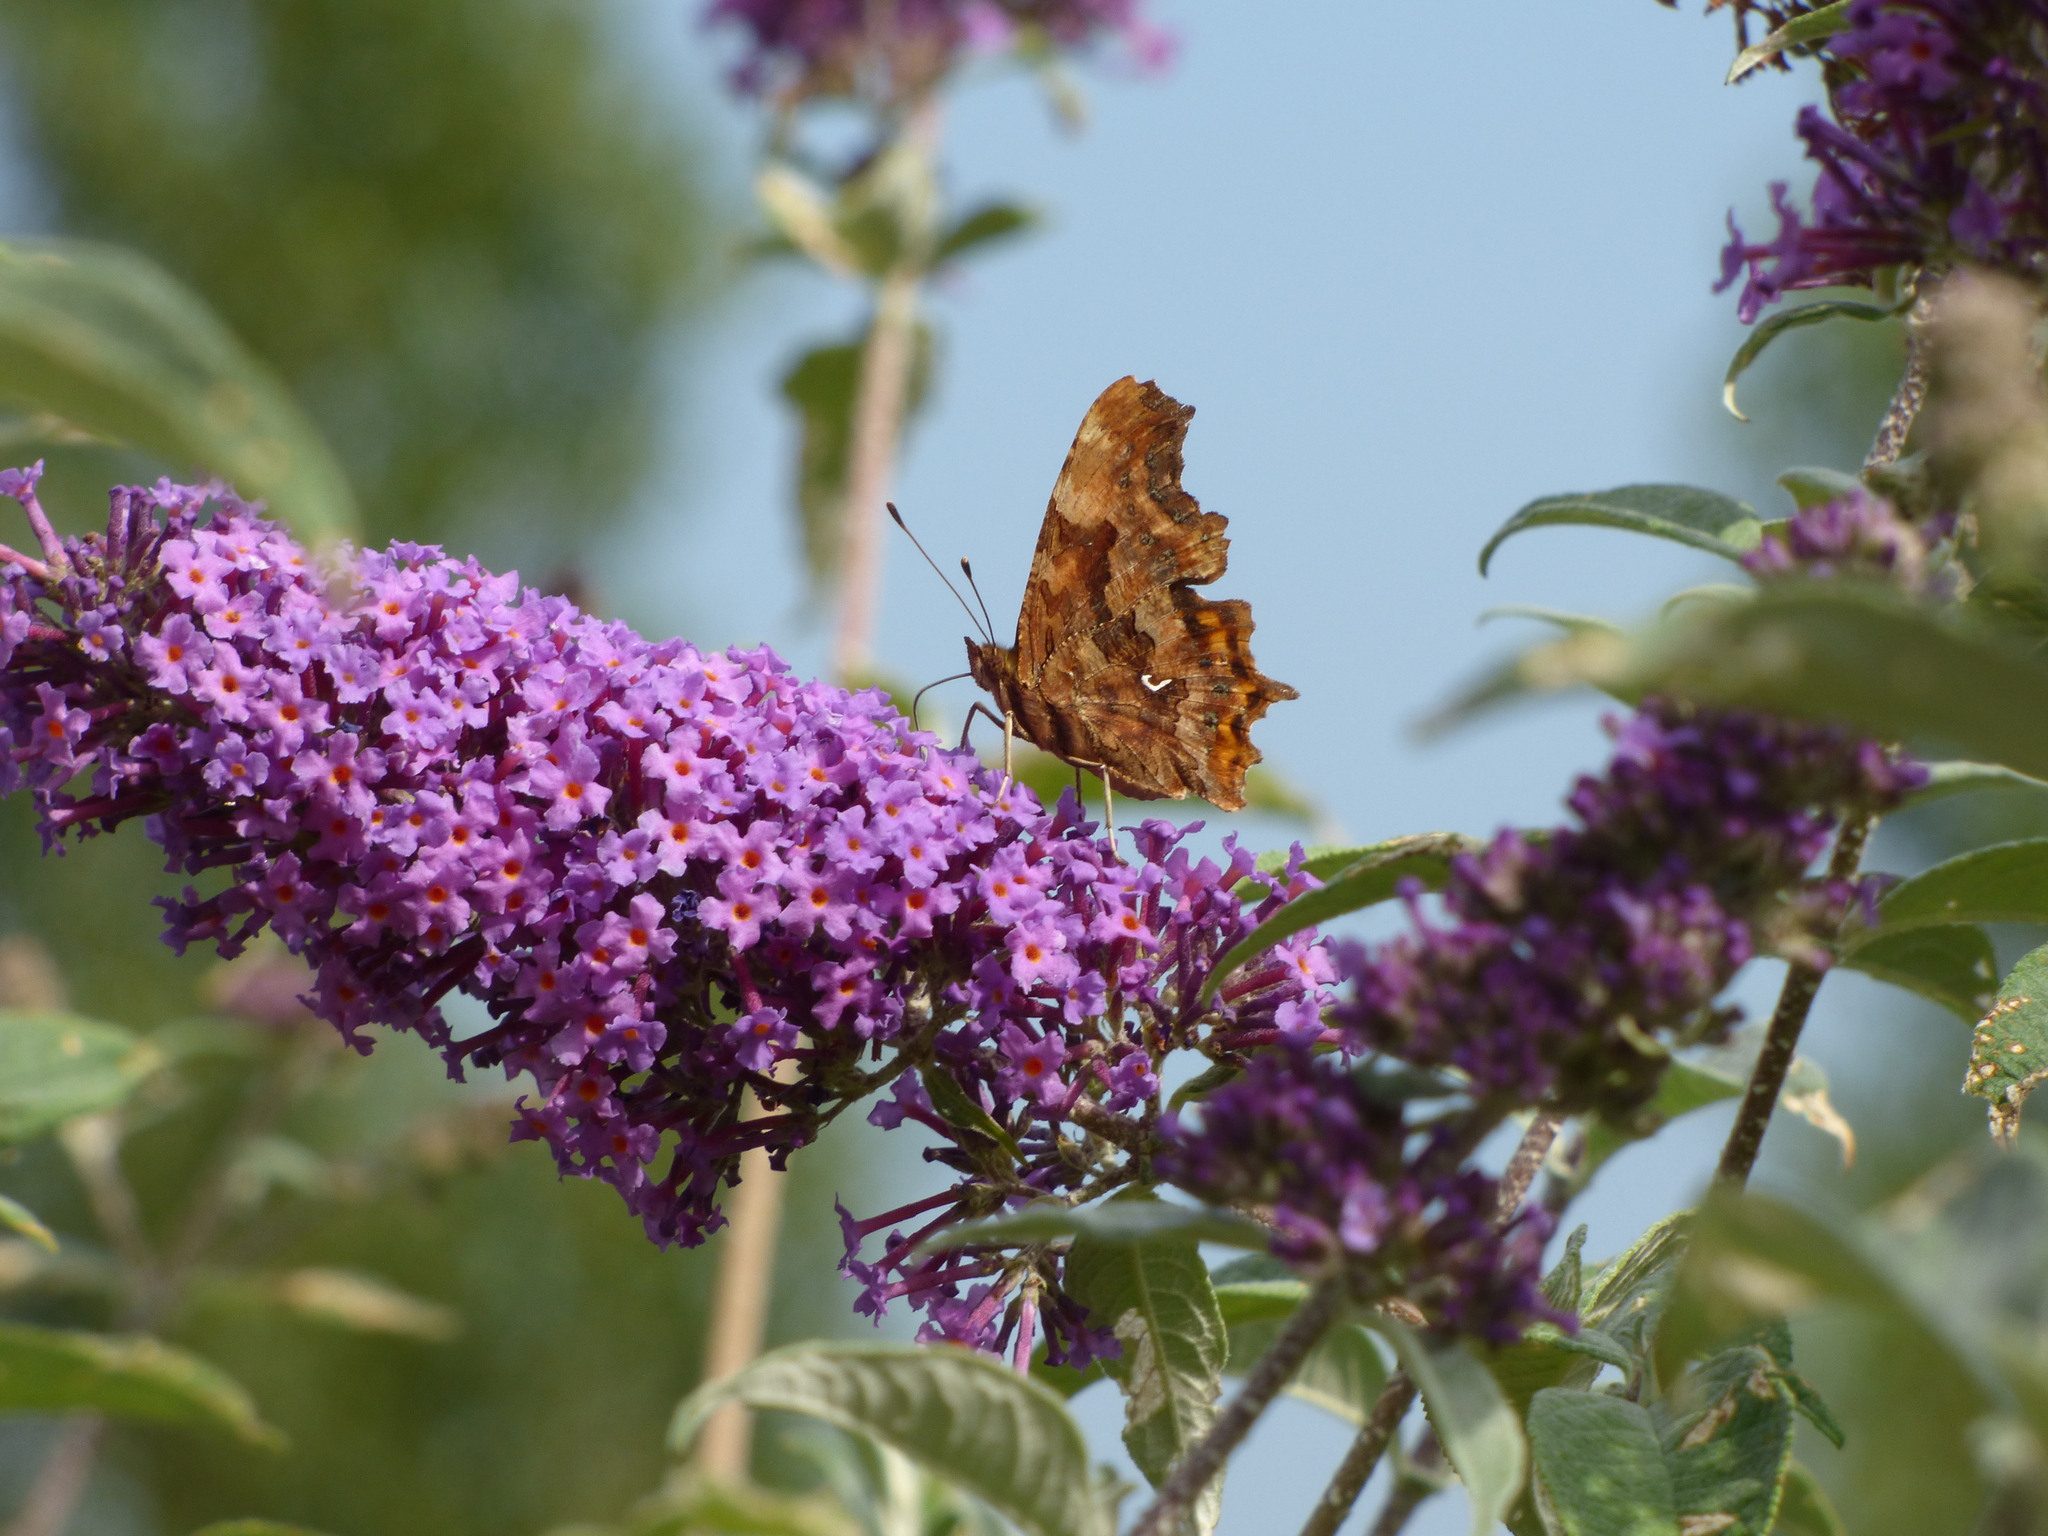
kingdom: Animalia
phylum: Arthropoda
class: Insecta
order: Lepidoptera
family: Nymphalidae
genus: Polygonia
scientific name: Polygonia c-album
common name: Comma
